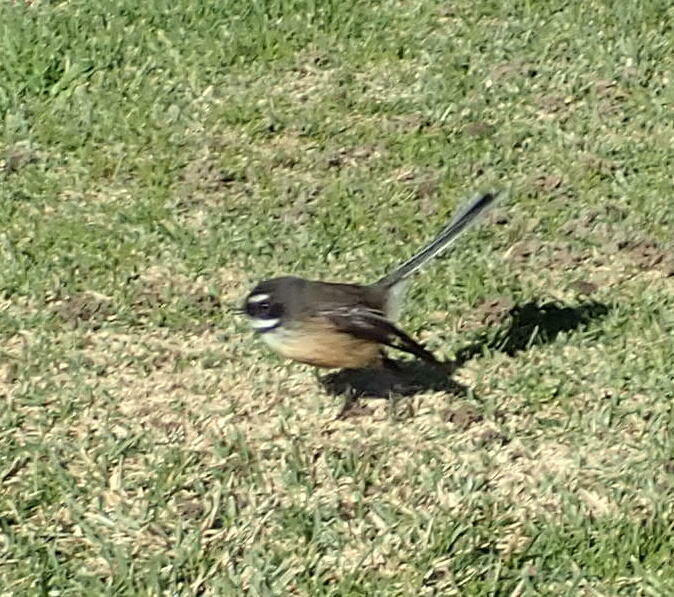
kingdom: Animalia
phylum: Chordata
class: Aves
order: Passeriformes
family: Rhipiduridae
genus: Rhipidura
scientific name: Rhipidura fuliginosa
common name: New zealand fantail
